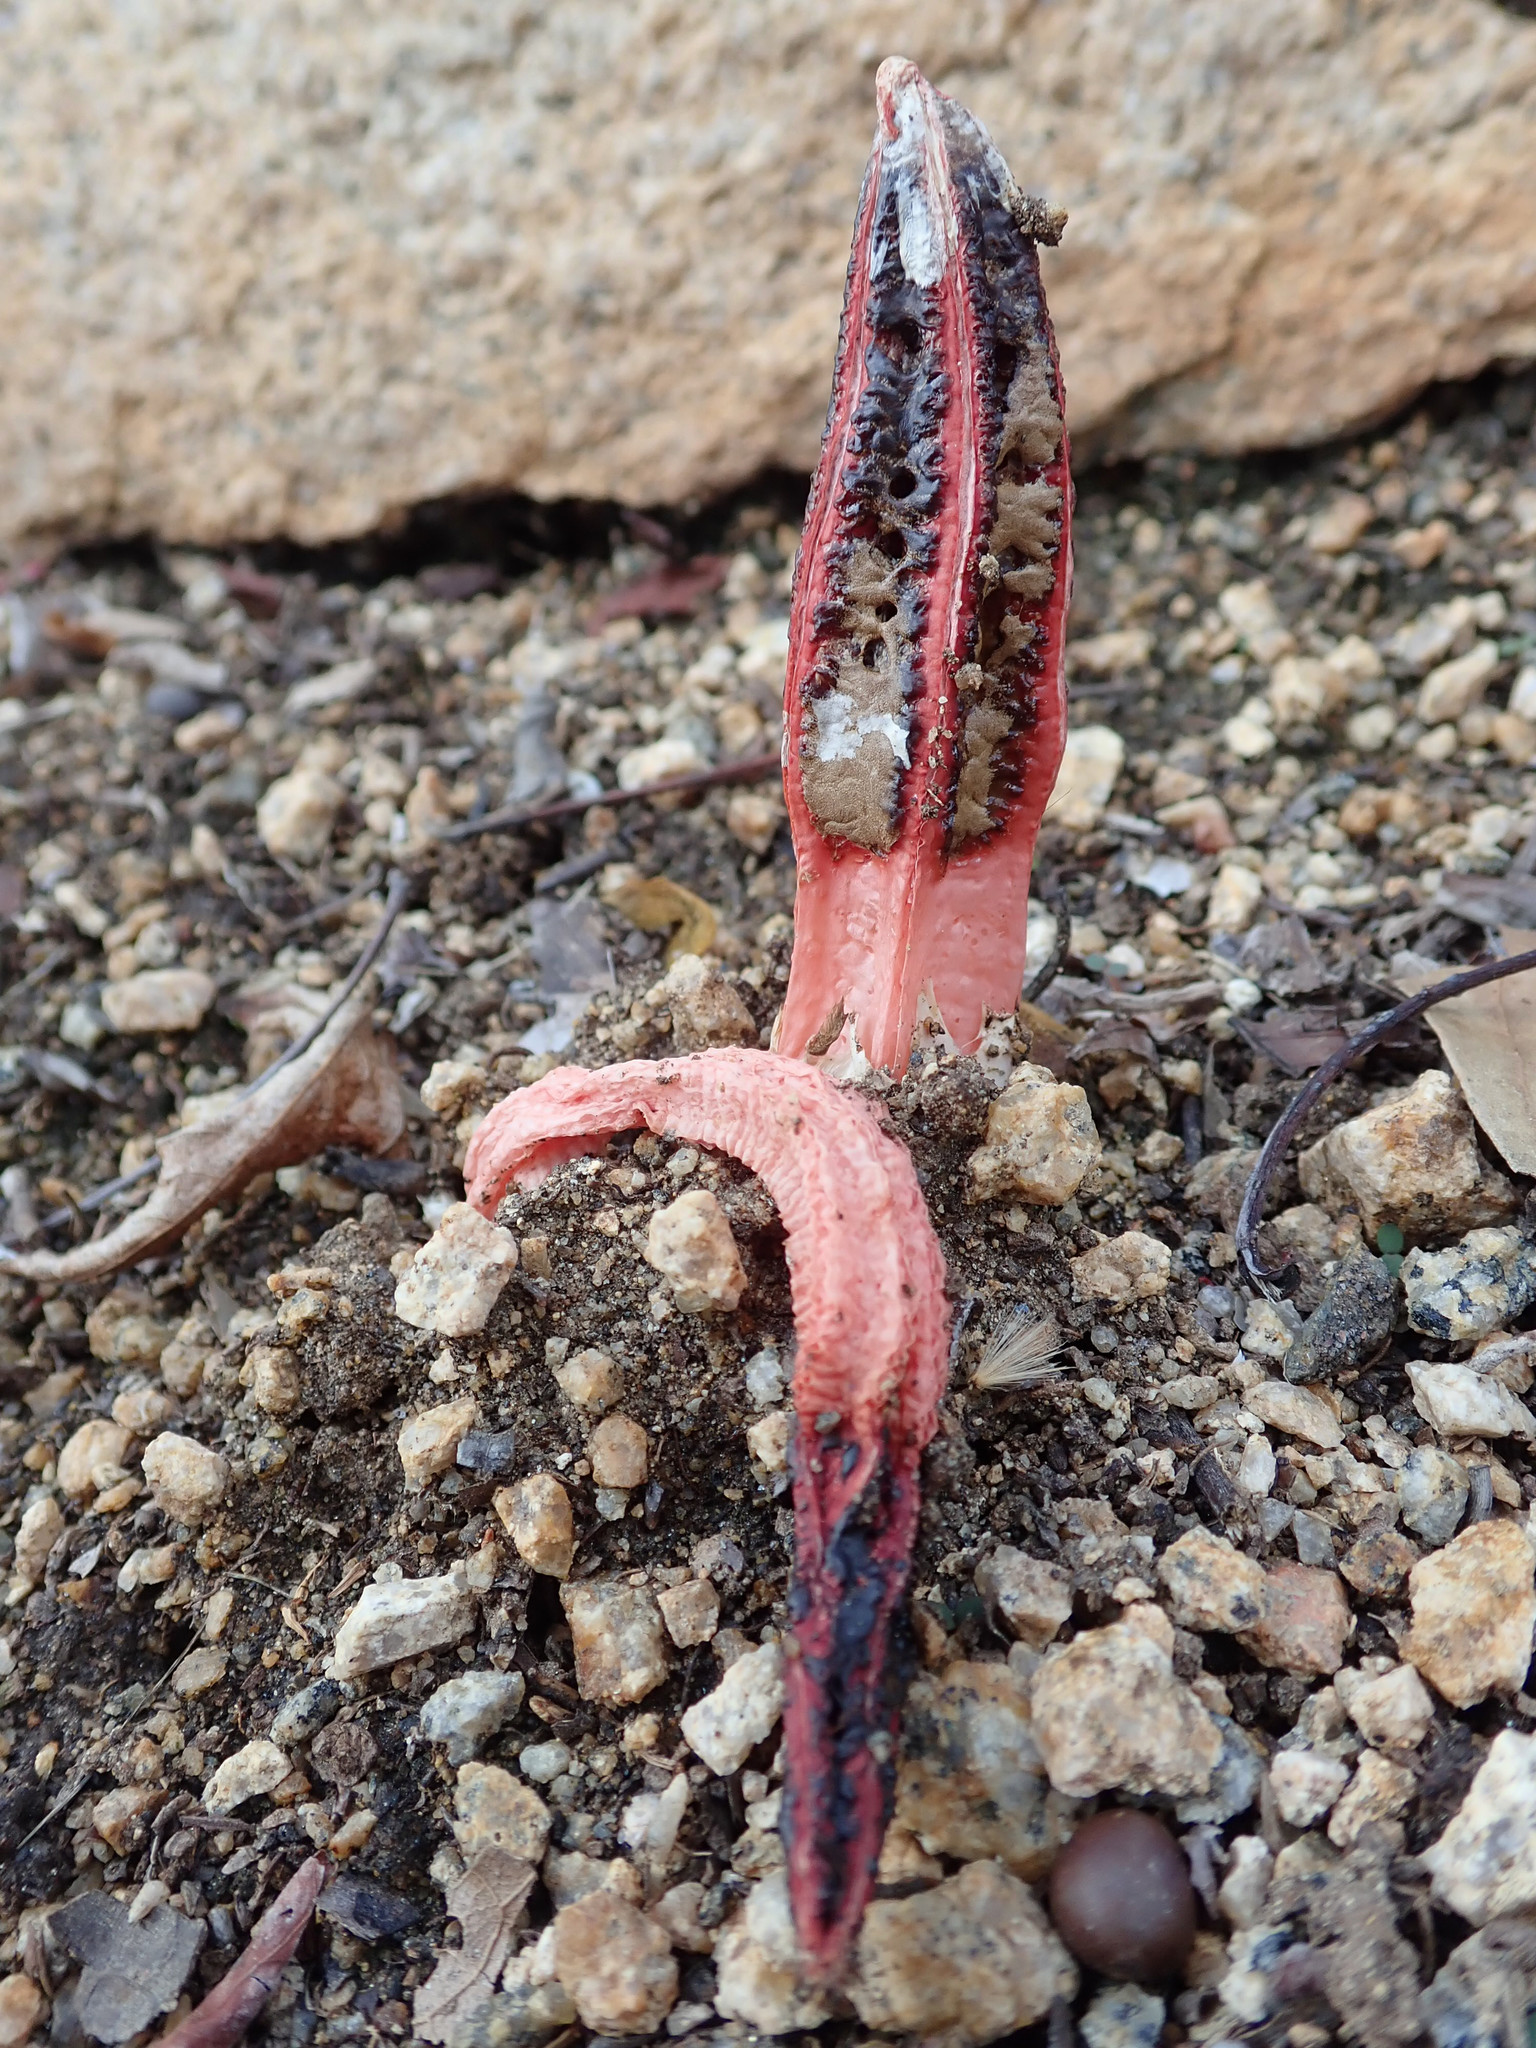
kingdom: Fungi
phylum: Basidiomycota
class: Agaricomycetes
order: Phallales
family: Phallaceae
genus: Lysurus
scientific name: Lysurus mokusin
